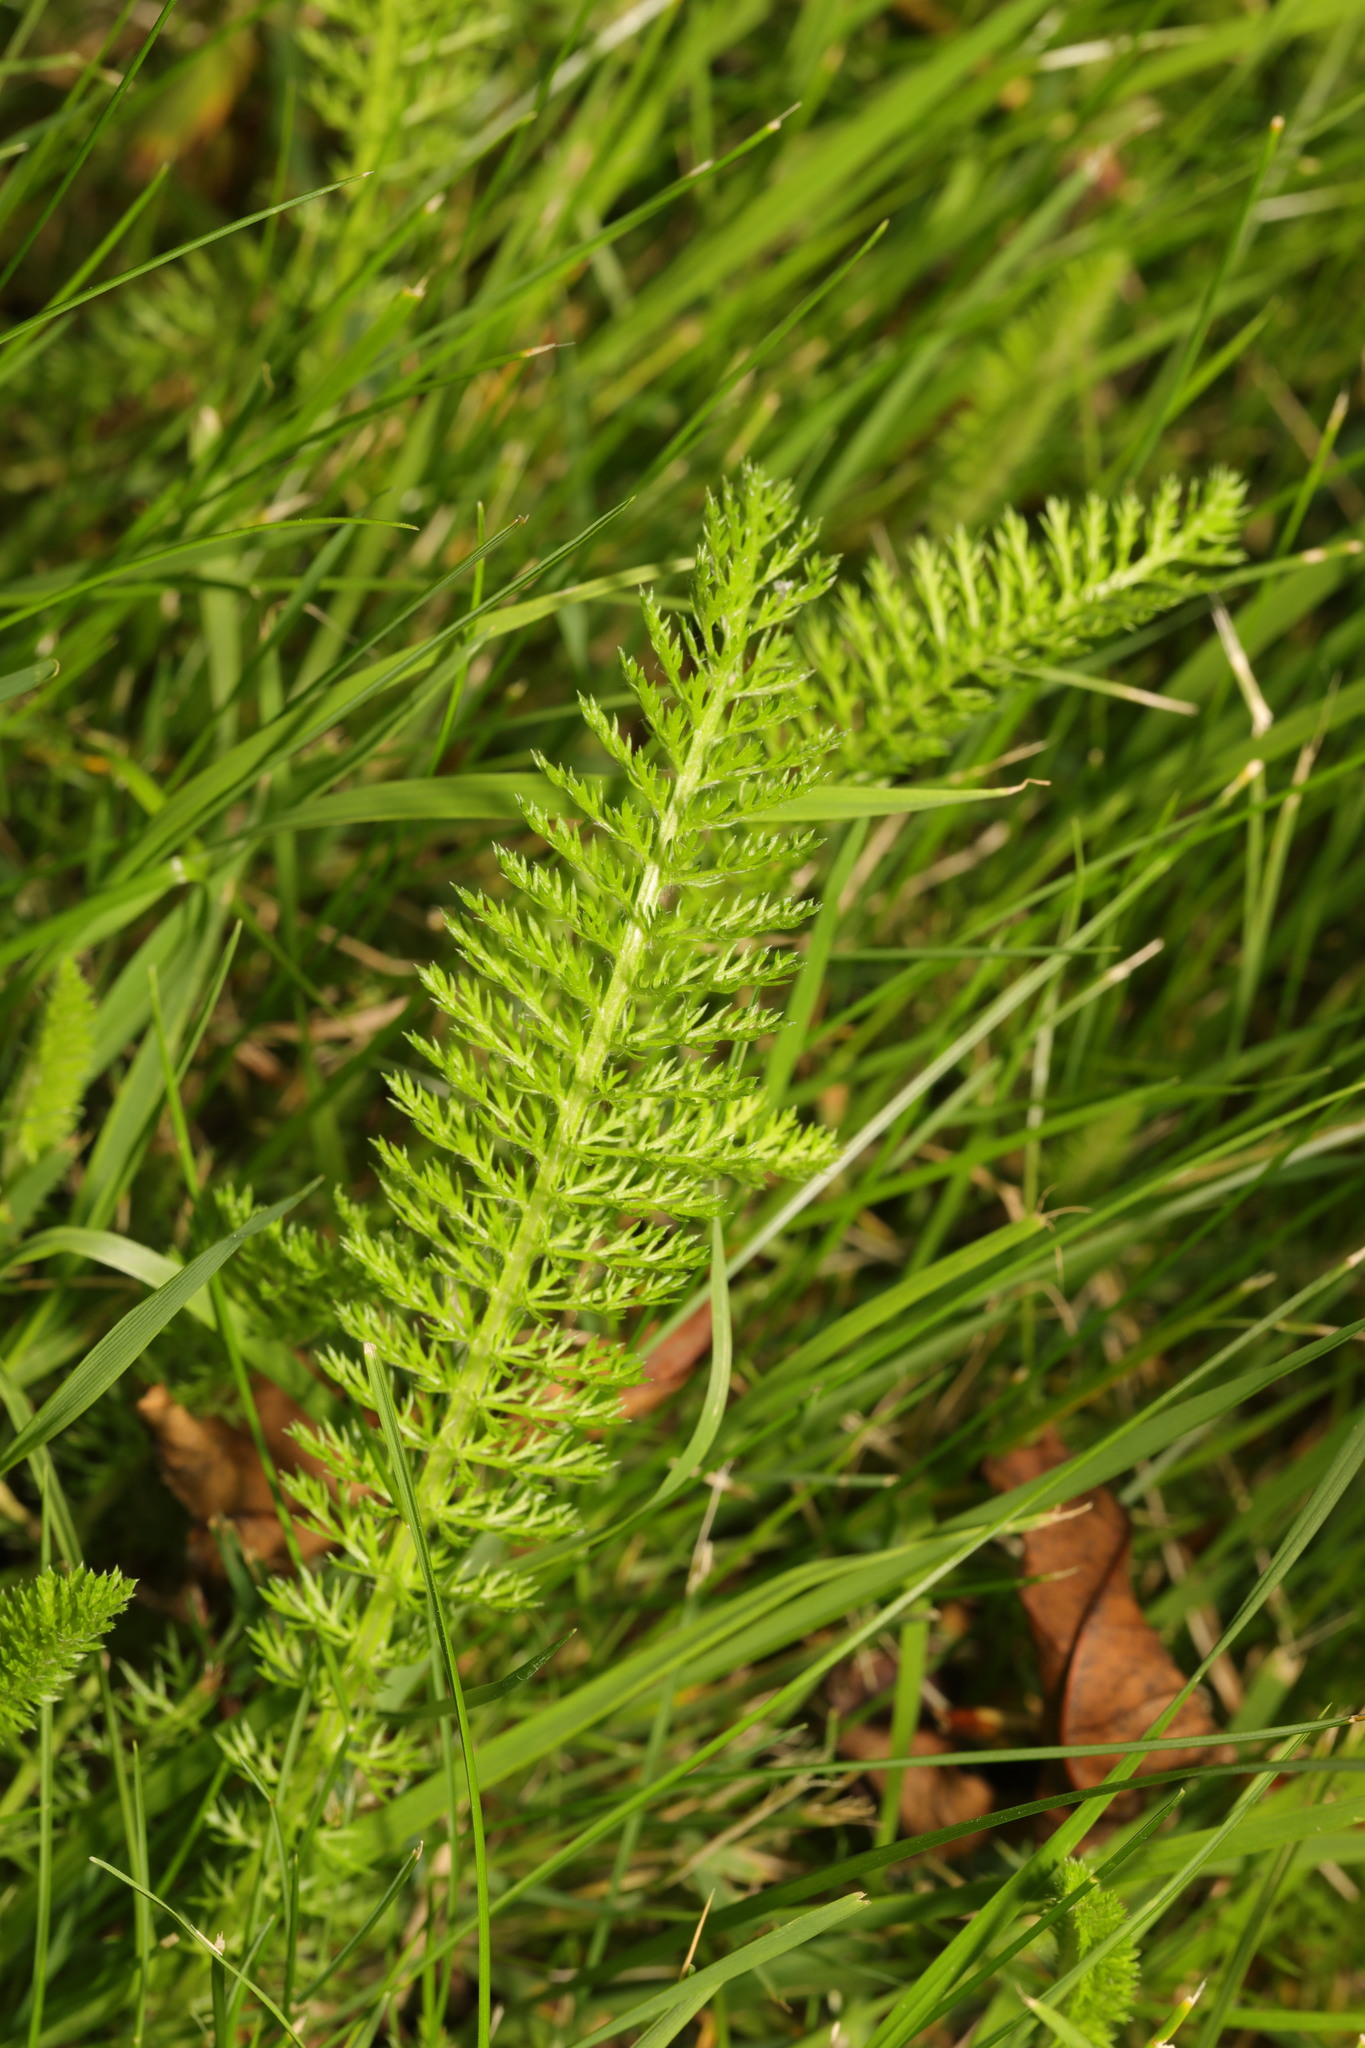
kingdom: Plantae
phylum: Tracheophyta
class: Magnoliopsida
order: Asterales
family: Asteraceae
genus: Achillea
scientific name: Achillea millefolium
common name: Yarrow
